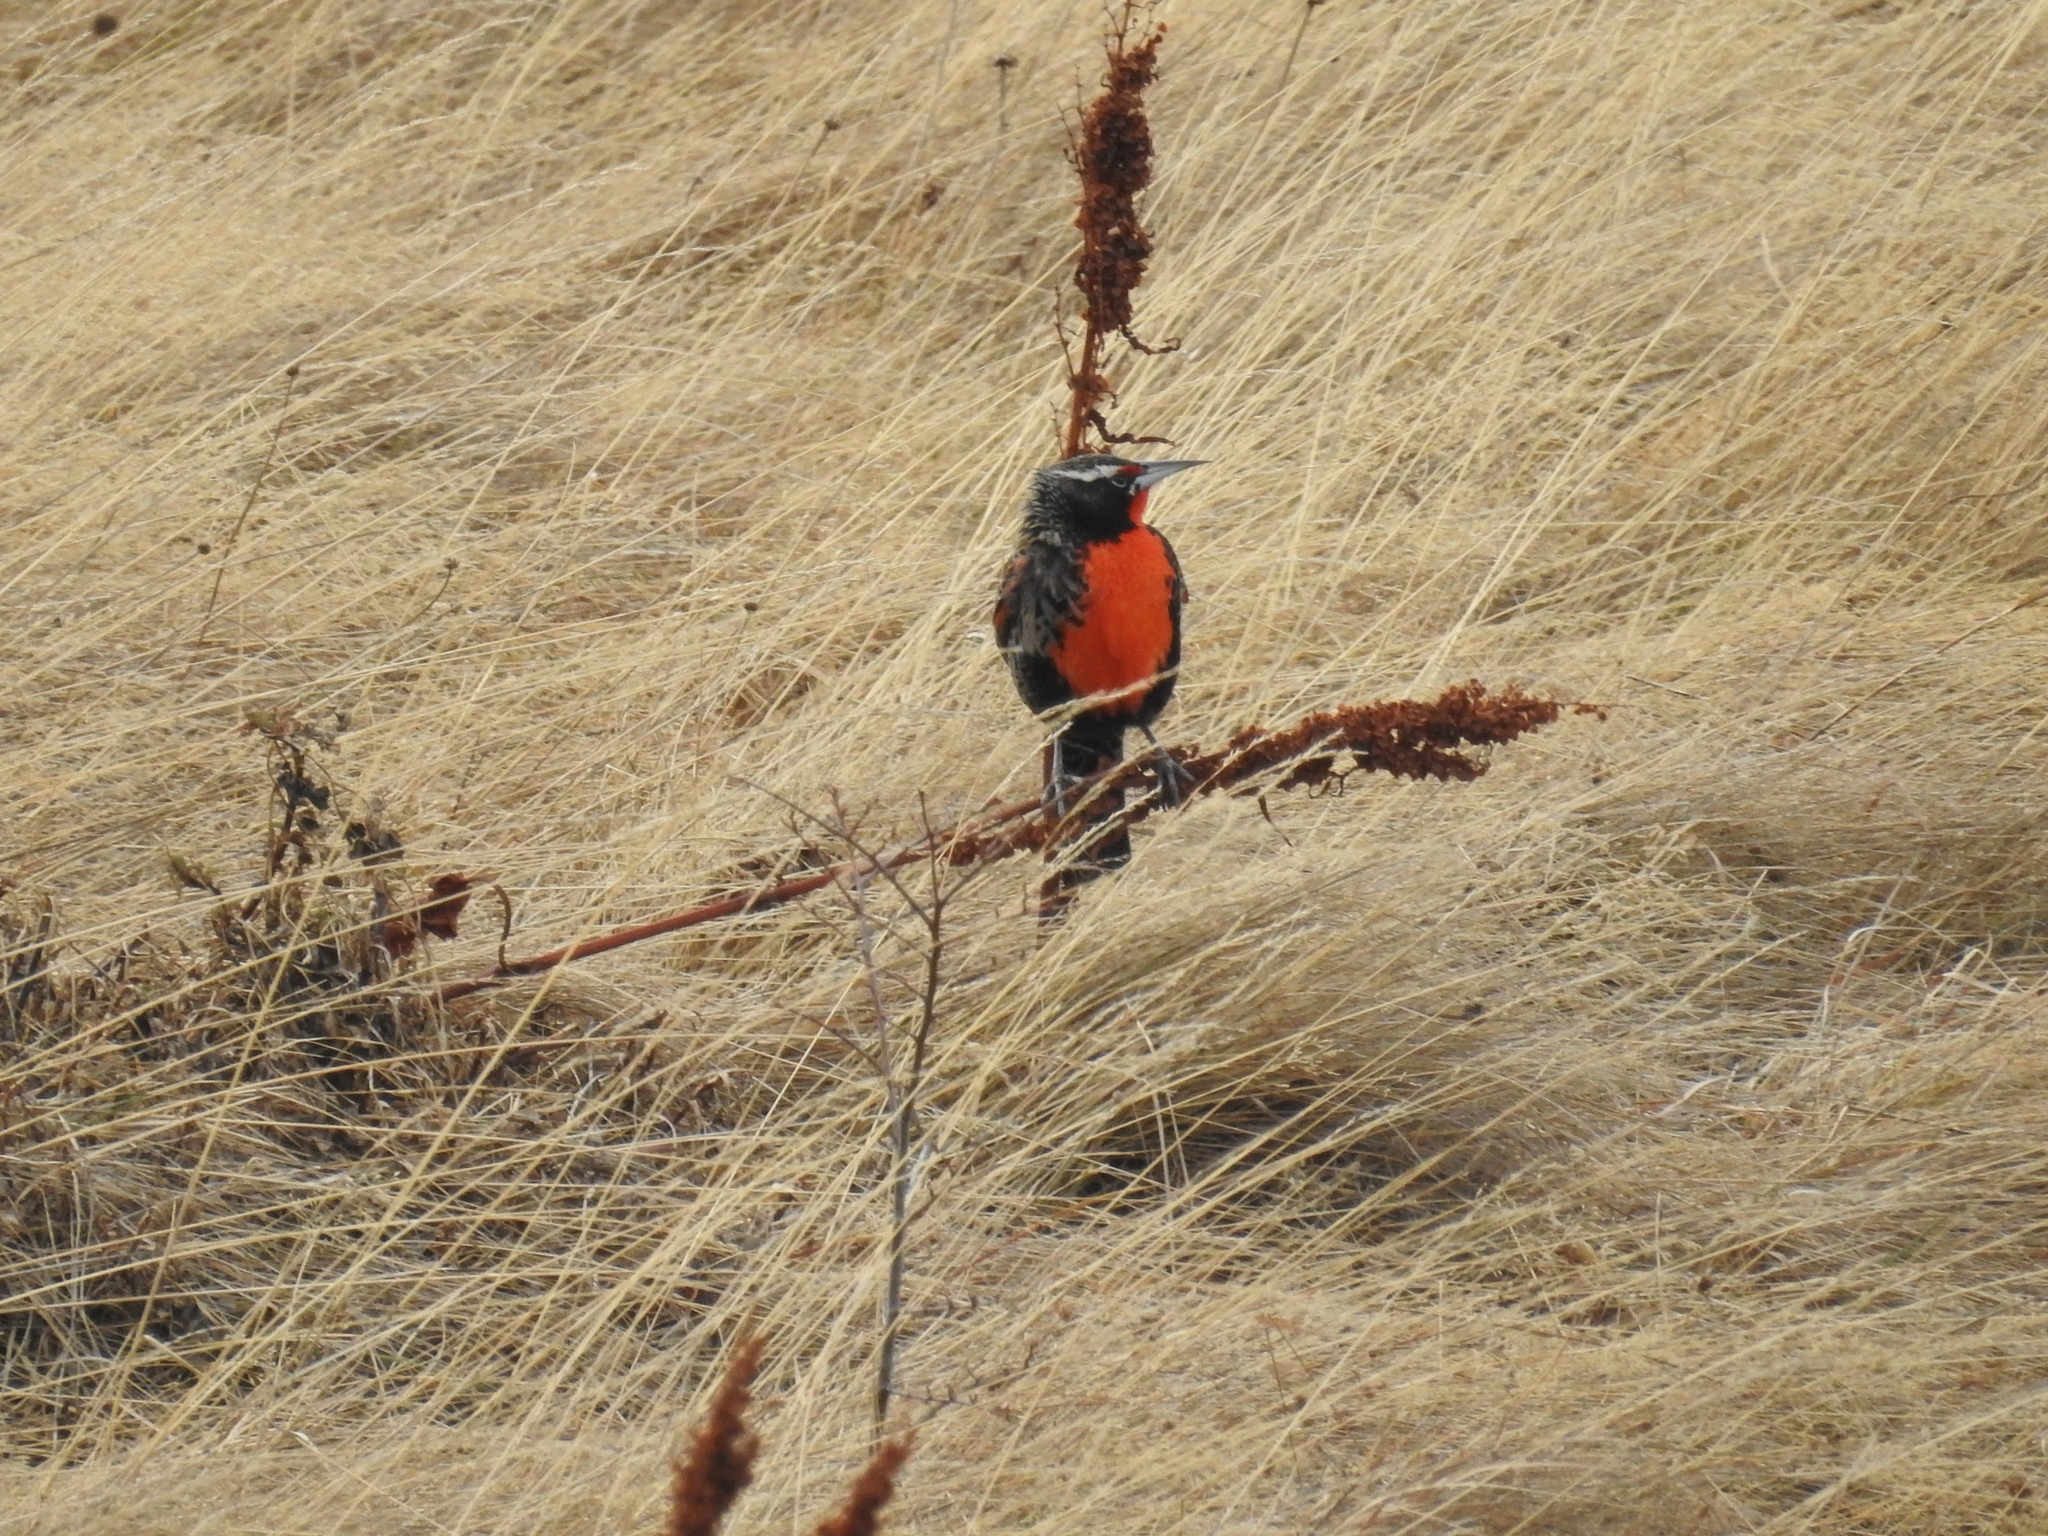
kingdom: Animalia
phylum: Chordata
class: Aves
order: Passeriformes
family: Icteridae
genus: Sturnella
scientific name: Sturnella loyca
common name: Long-tailed meadowlark
